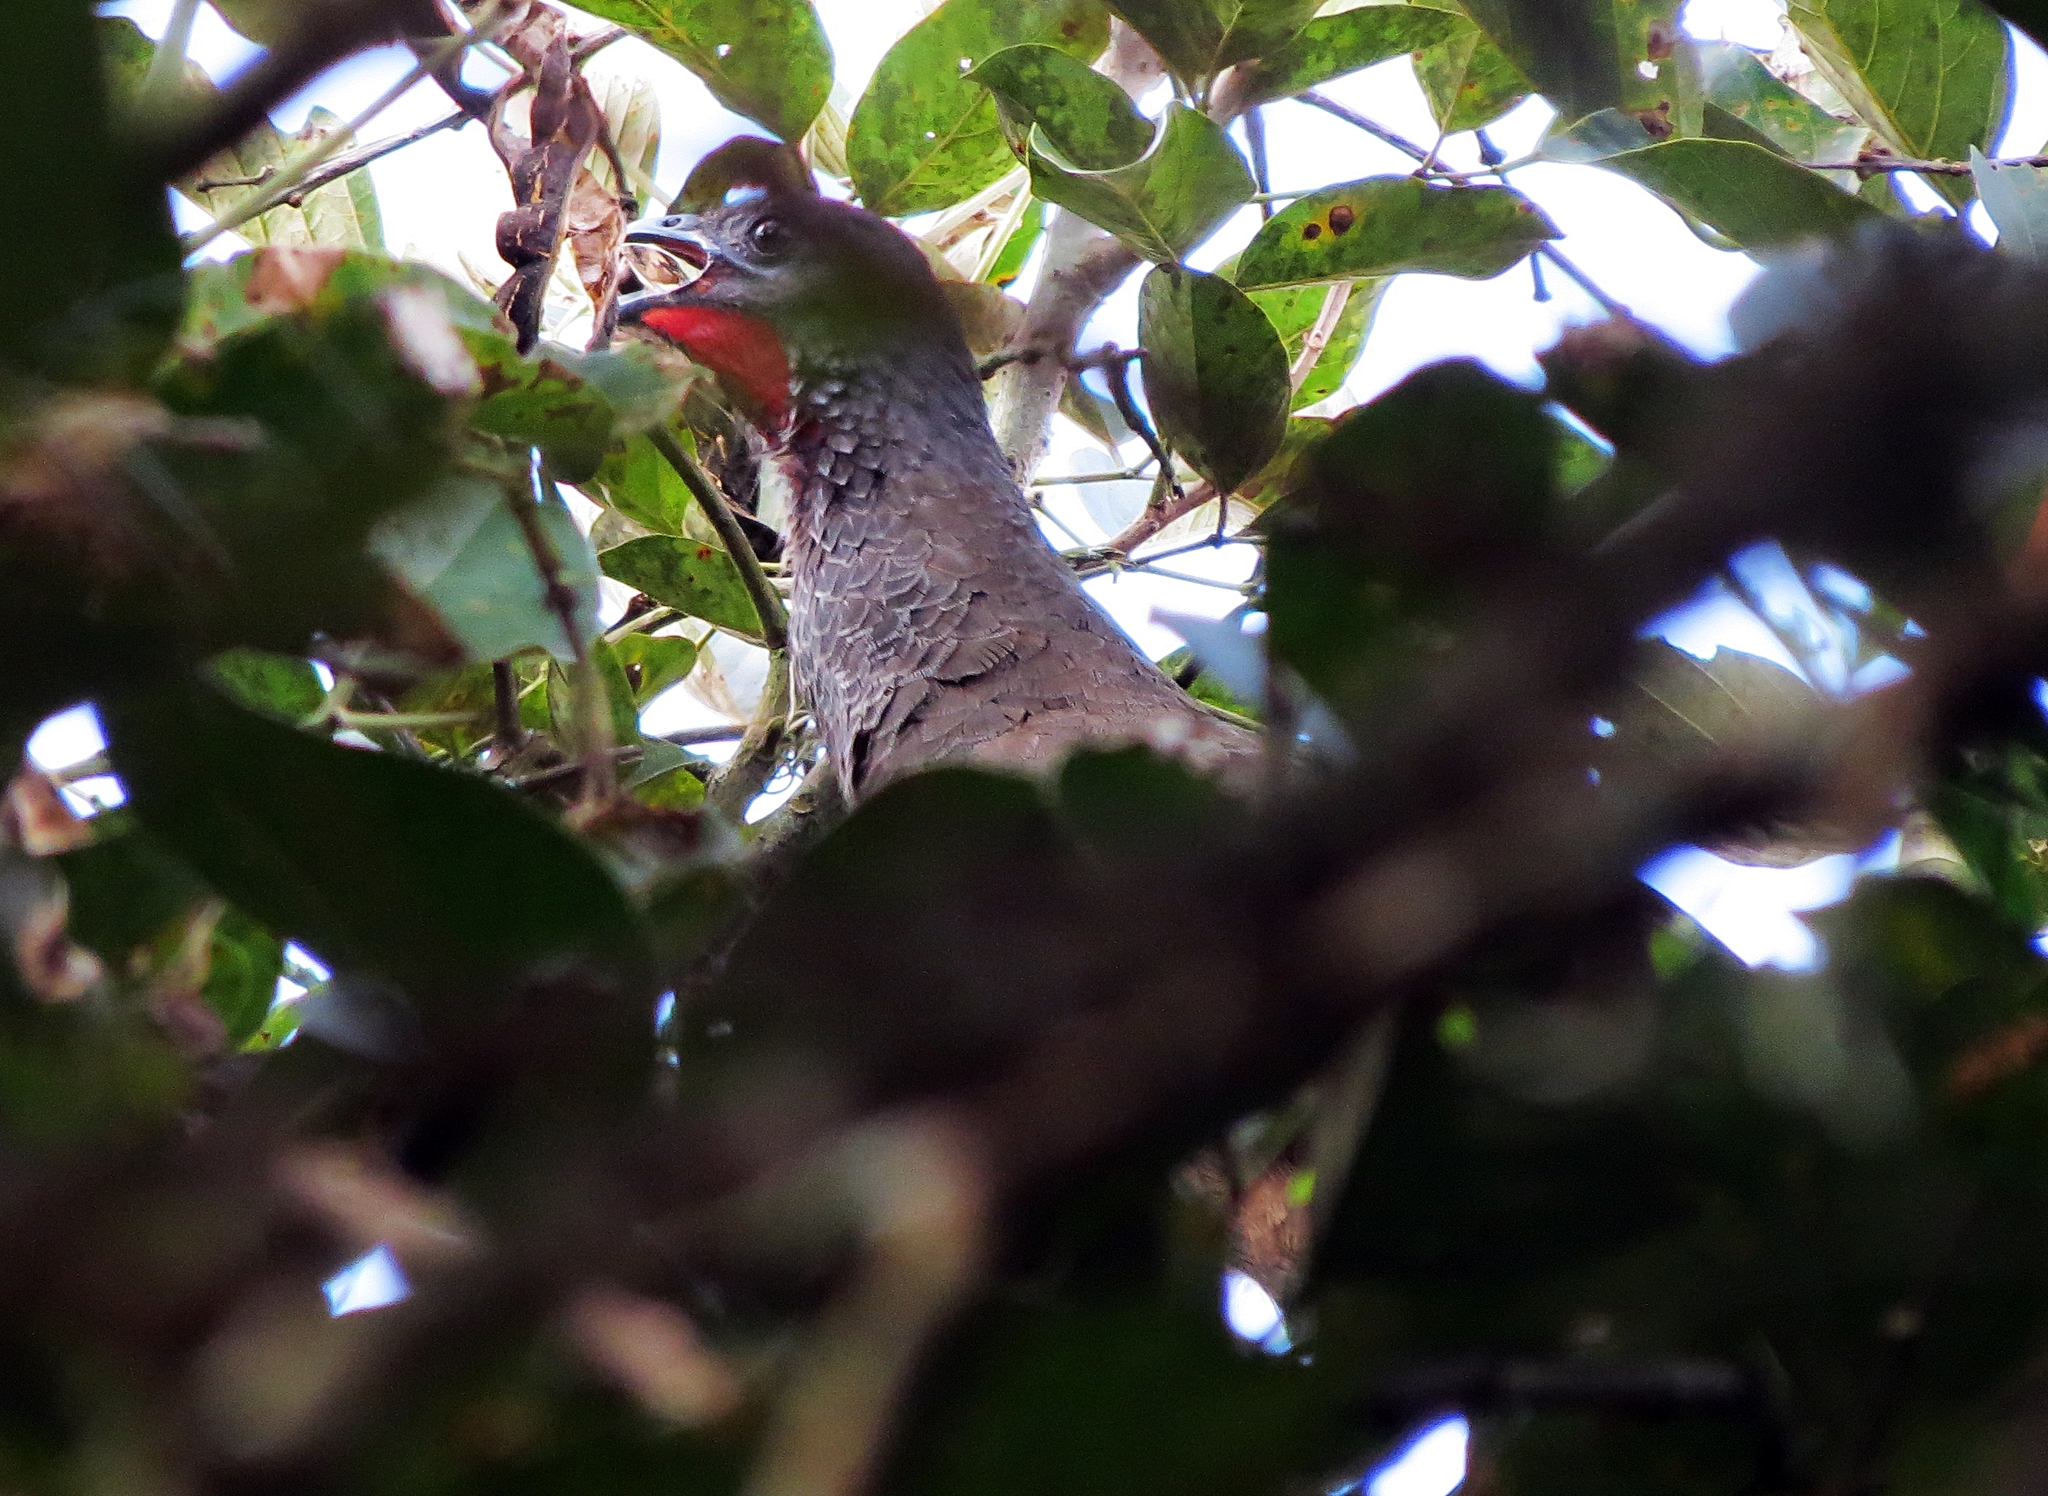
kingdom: Animalia
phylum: Chordata
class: Aves
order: Galliformes
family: Cracidae
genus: Ortalis
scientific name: Ortalis columbiana
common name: Colombian chachalaca
